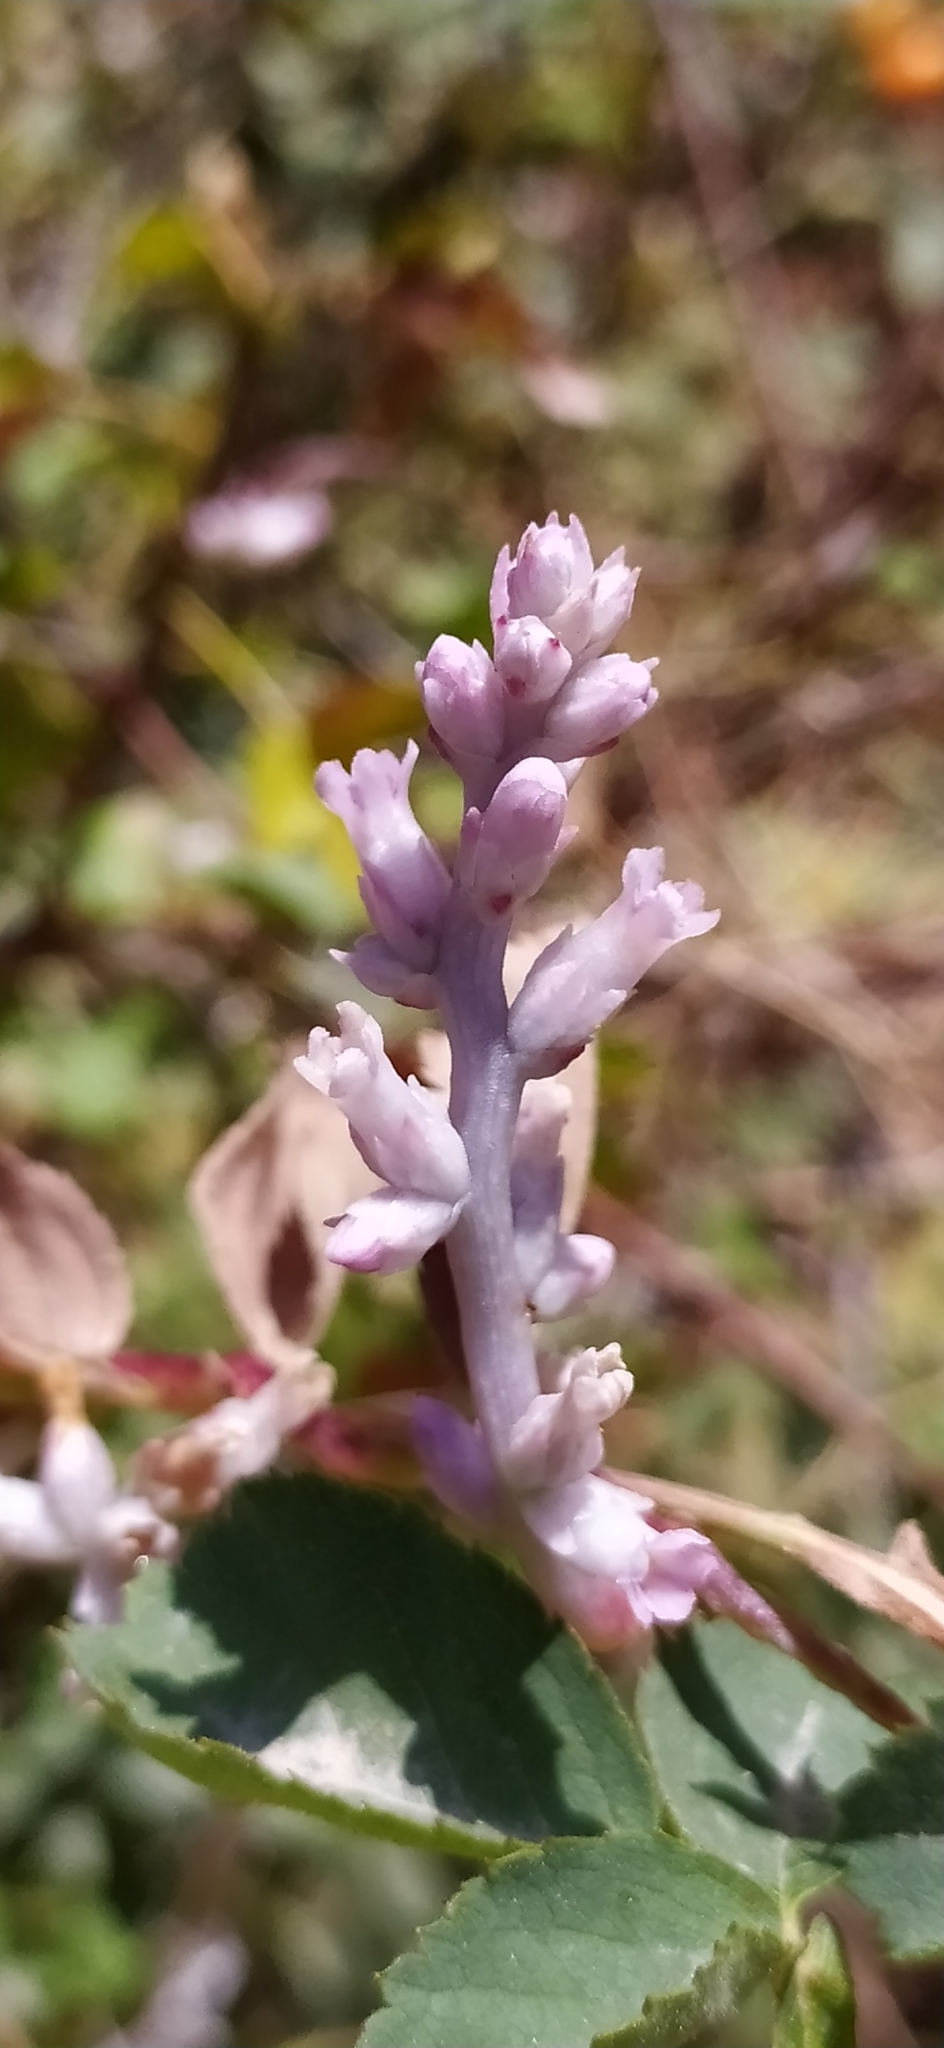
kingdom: Plantae
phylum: Tracheophyta
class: Magnoliopsida
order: Solanales
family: Convolvulaceae
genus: Cuscuta
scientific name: Cuscuta lehmanniana
